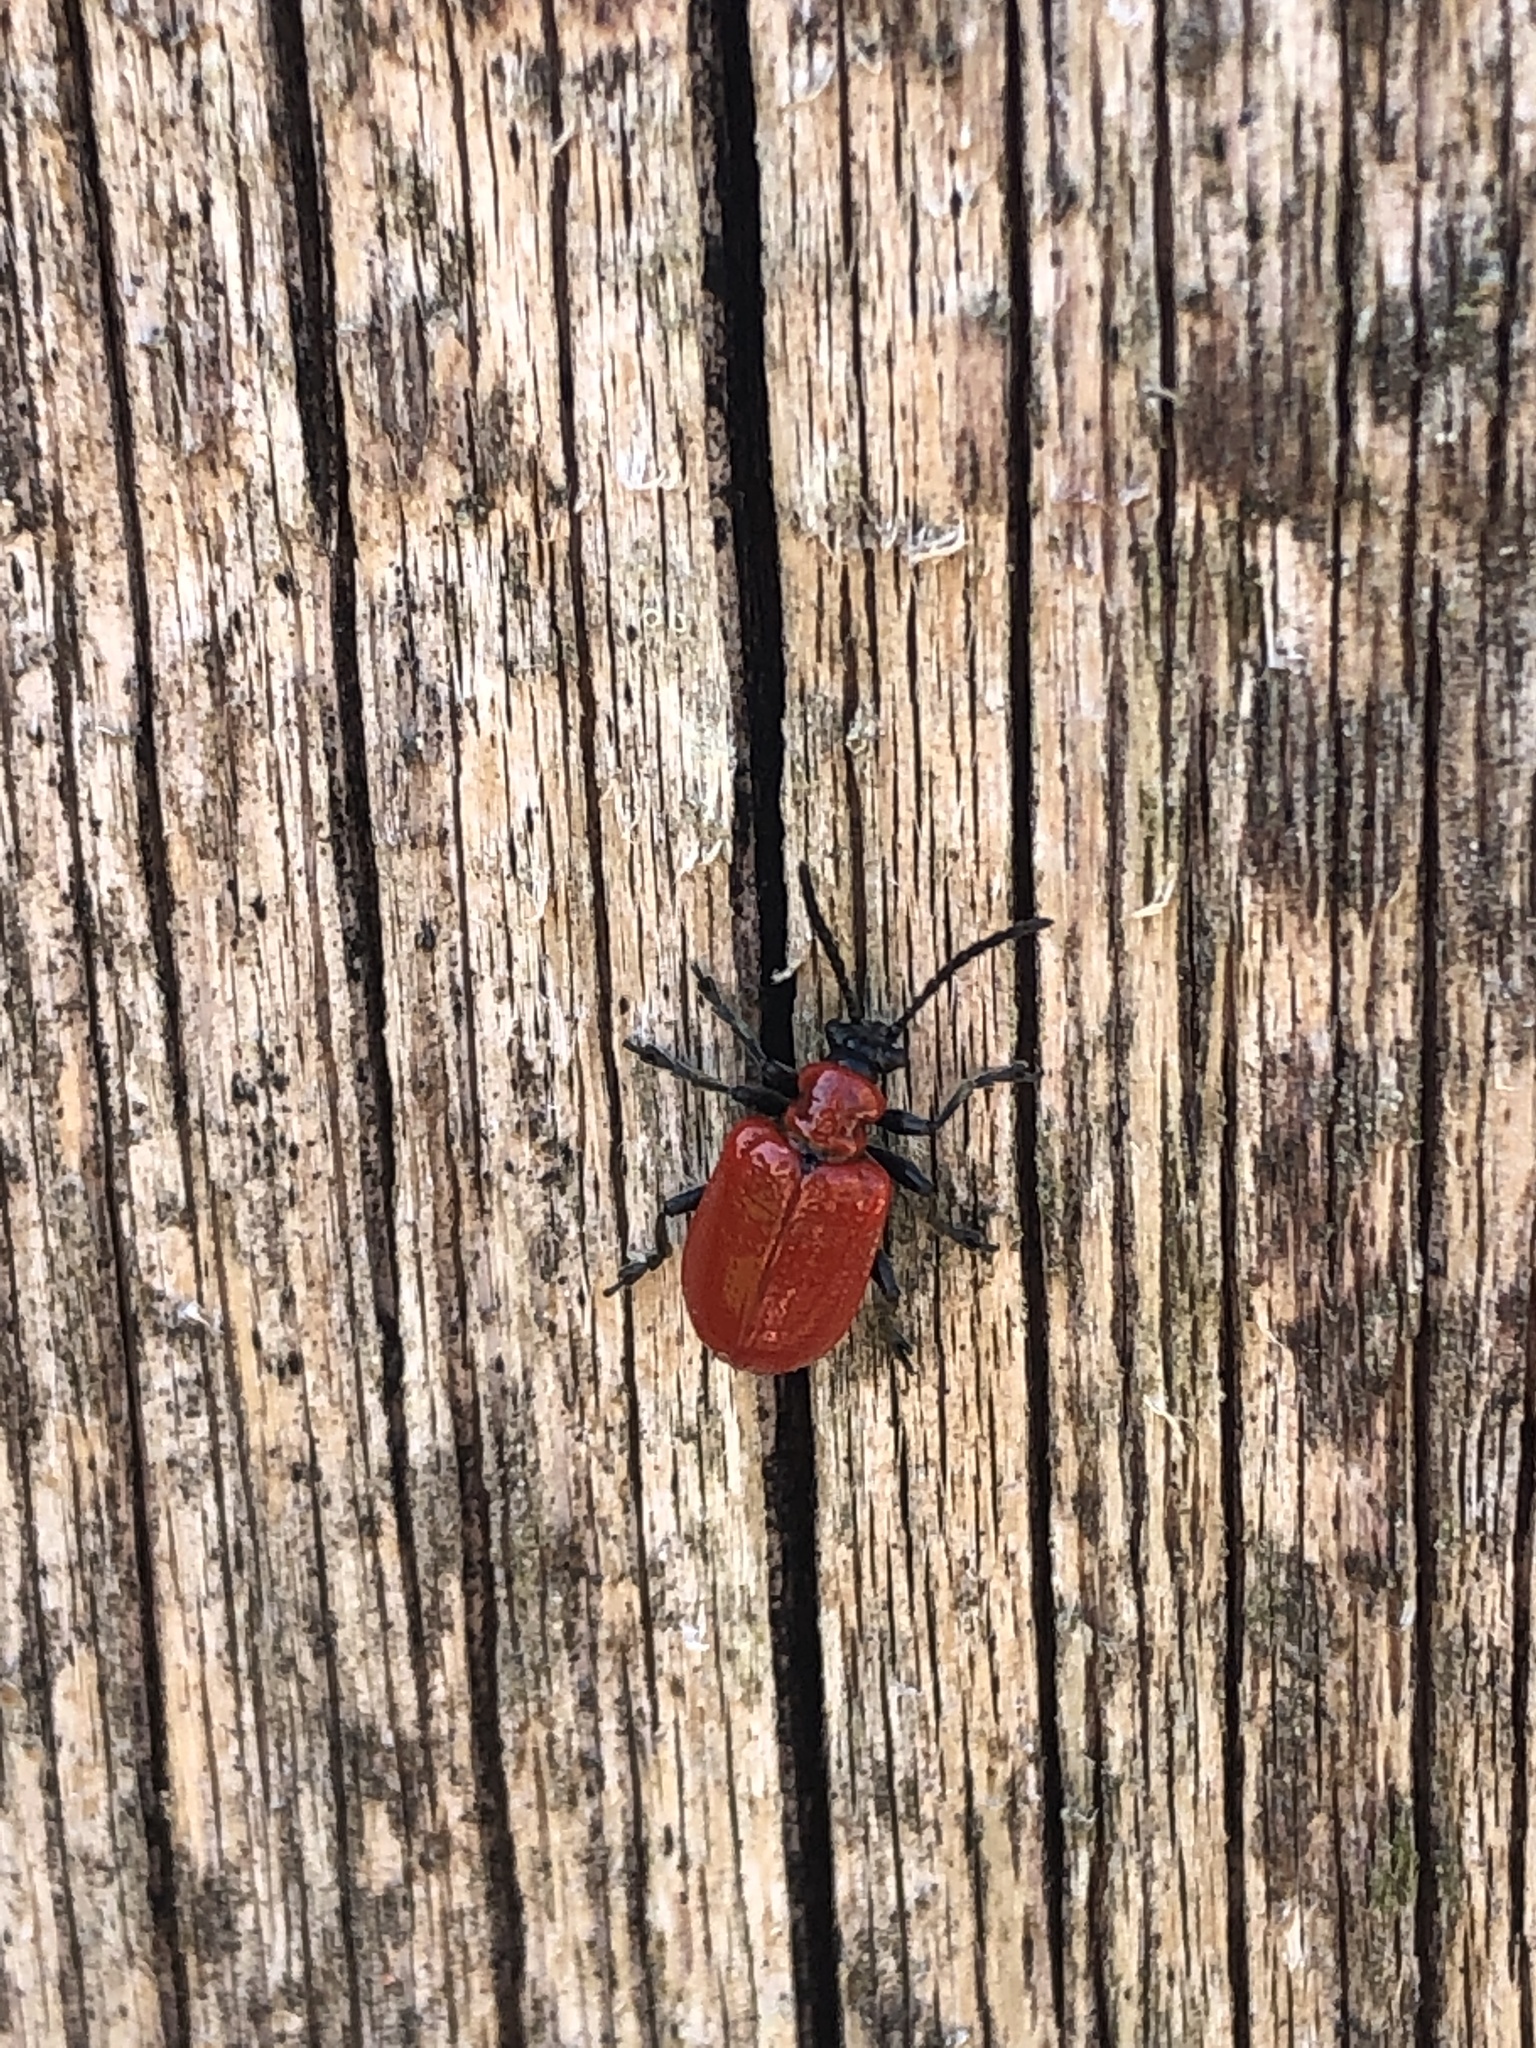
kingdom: Animalia
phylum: Arthropoda
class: Insecta
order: Coleoptera
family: Chrysomelidae
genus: Lilioceris
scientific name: Lilioceris lilii
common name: Lily beetle
